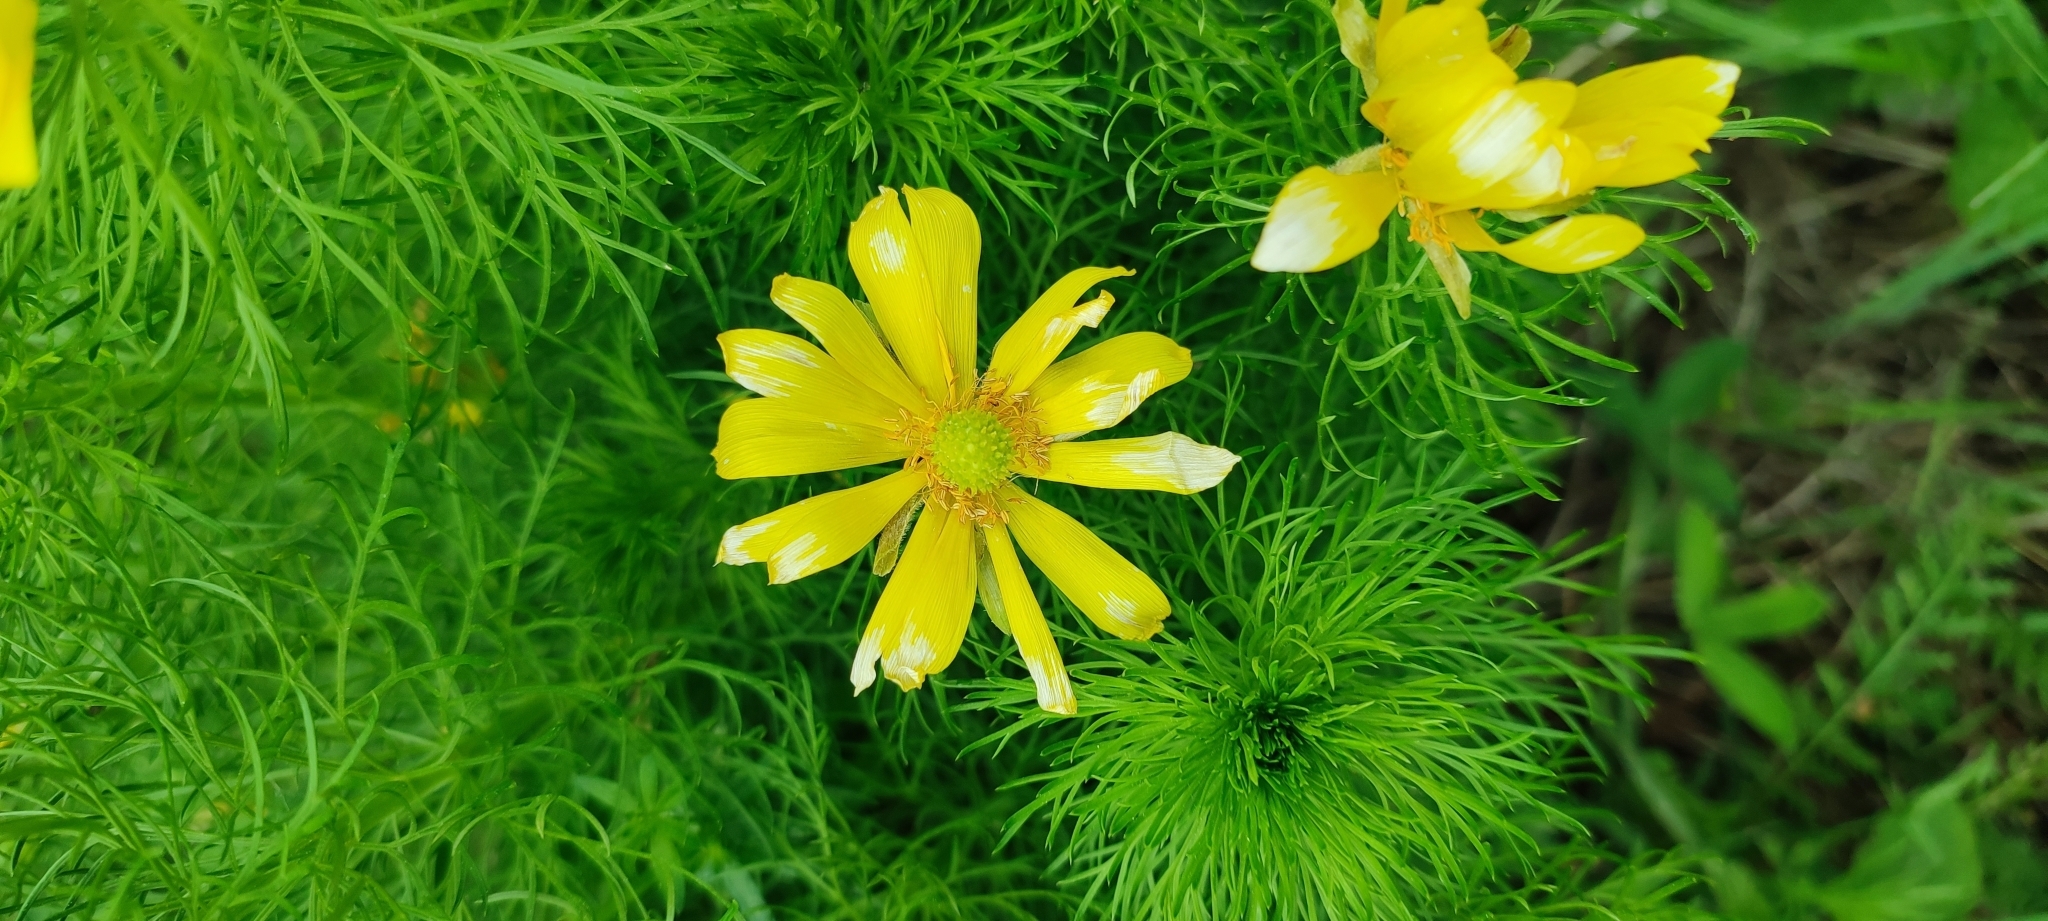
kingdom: Plantae
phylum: Tracheophyta
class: Magnoliopsida
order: Ranunculales
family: Ranunculaceae
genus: Adonis
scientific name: Adonis vernalis
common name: Yellow pheasants-eye
